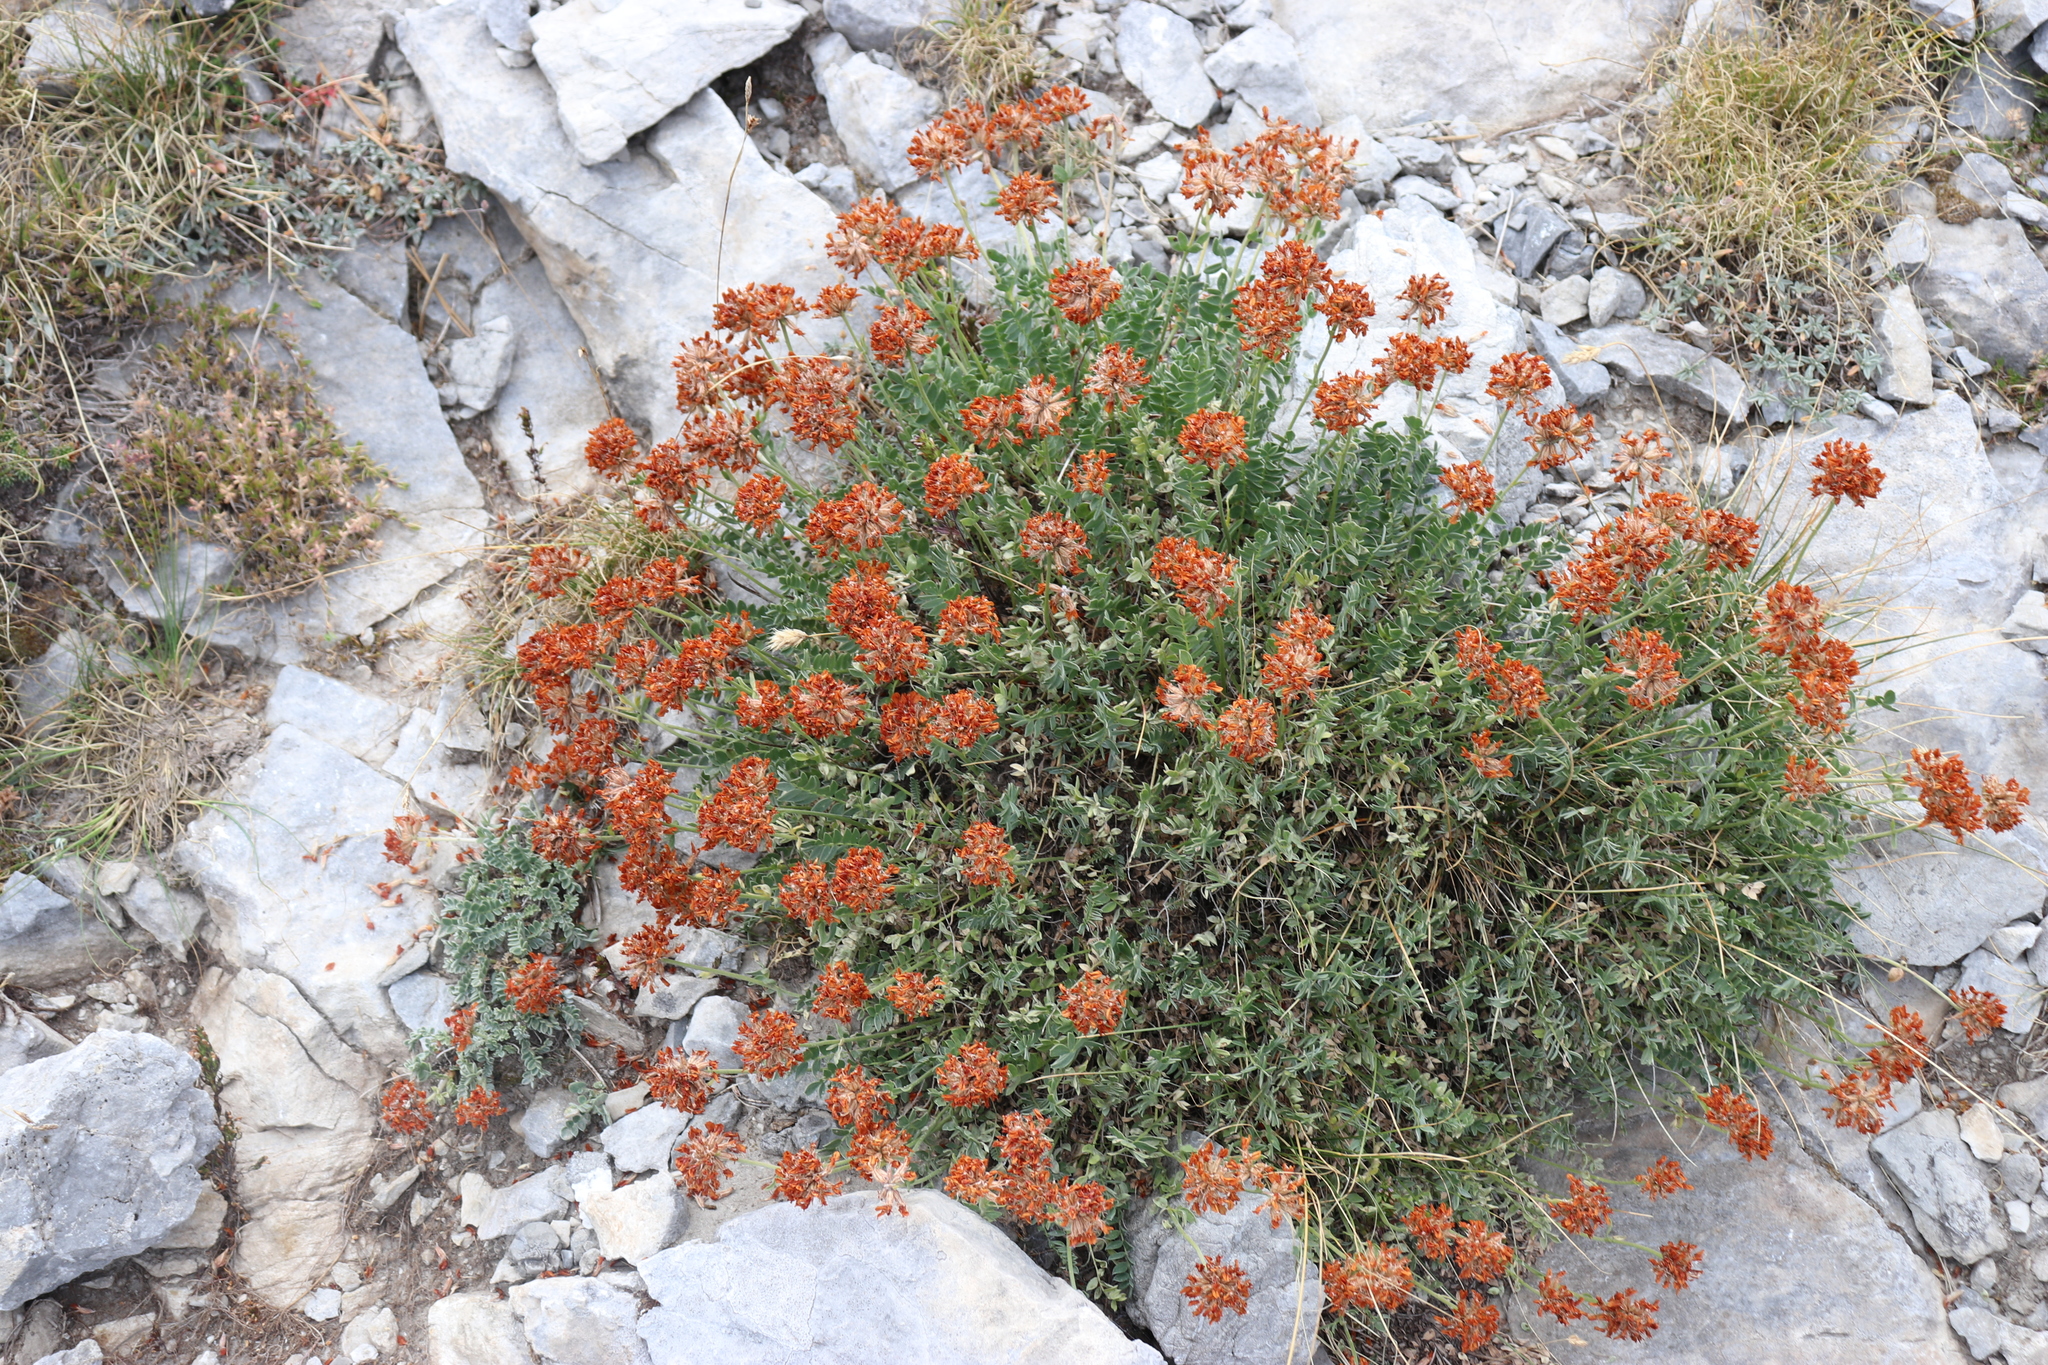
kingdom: Plantae
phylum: Tracheophyta
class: Magnoliopsida
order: Fabales
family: Fabaceae
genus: Anthyllis
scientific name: Anthyllis aurea
